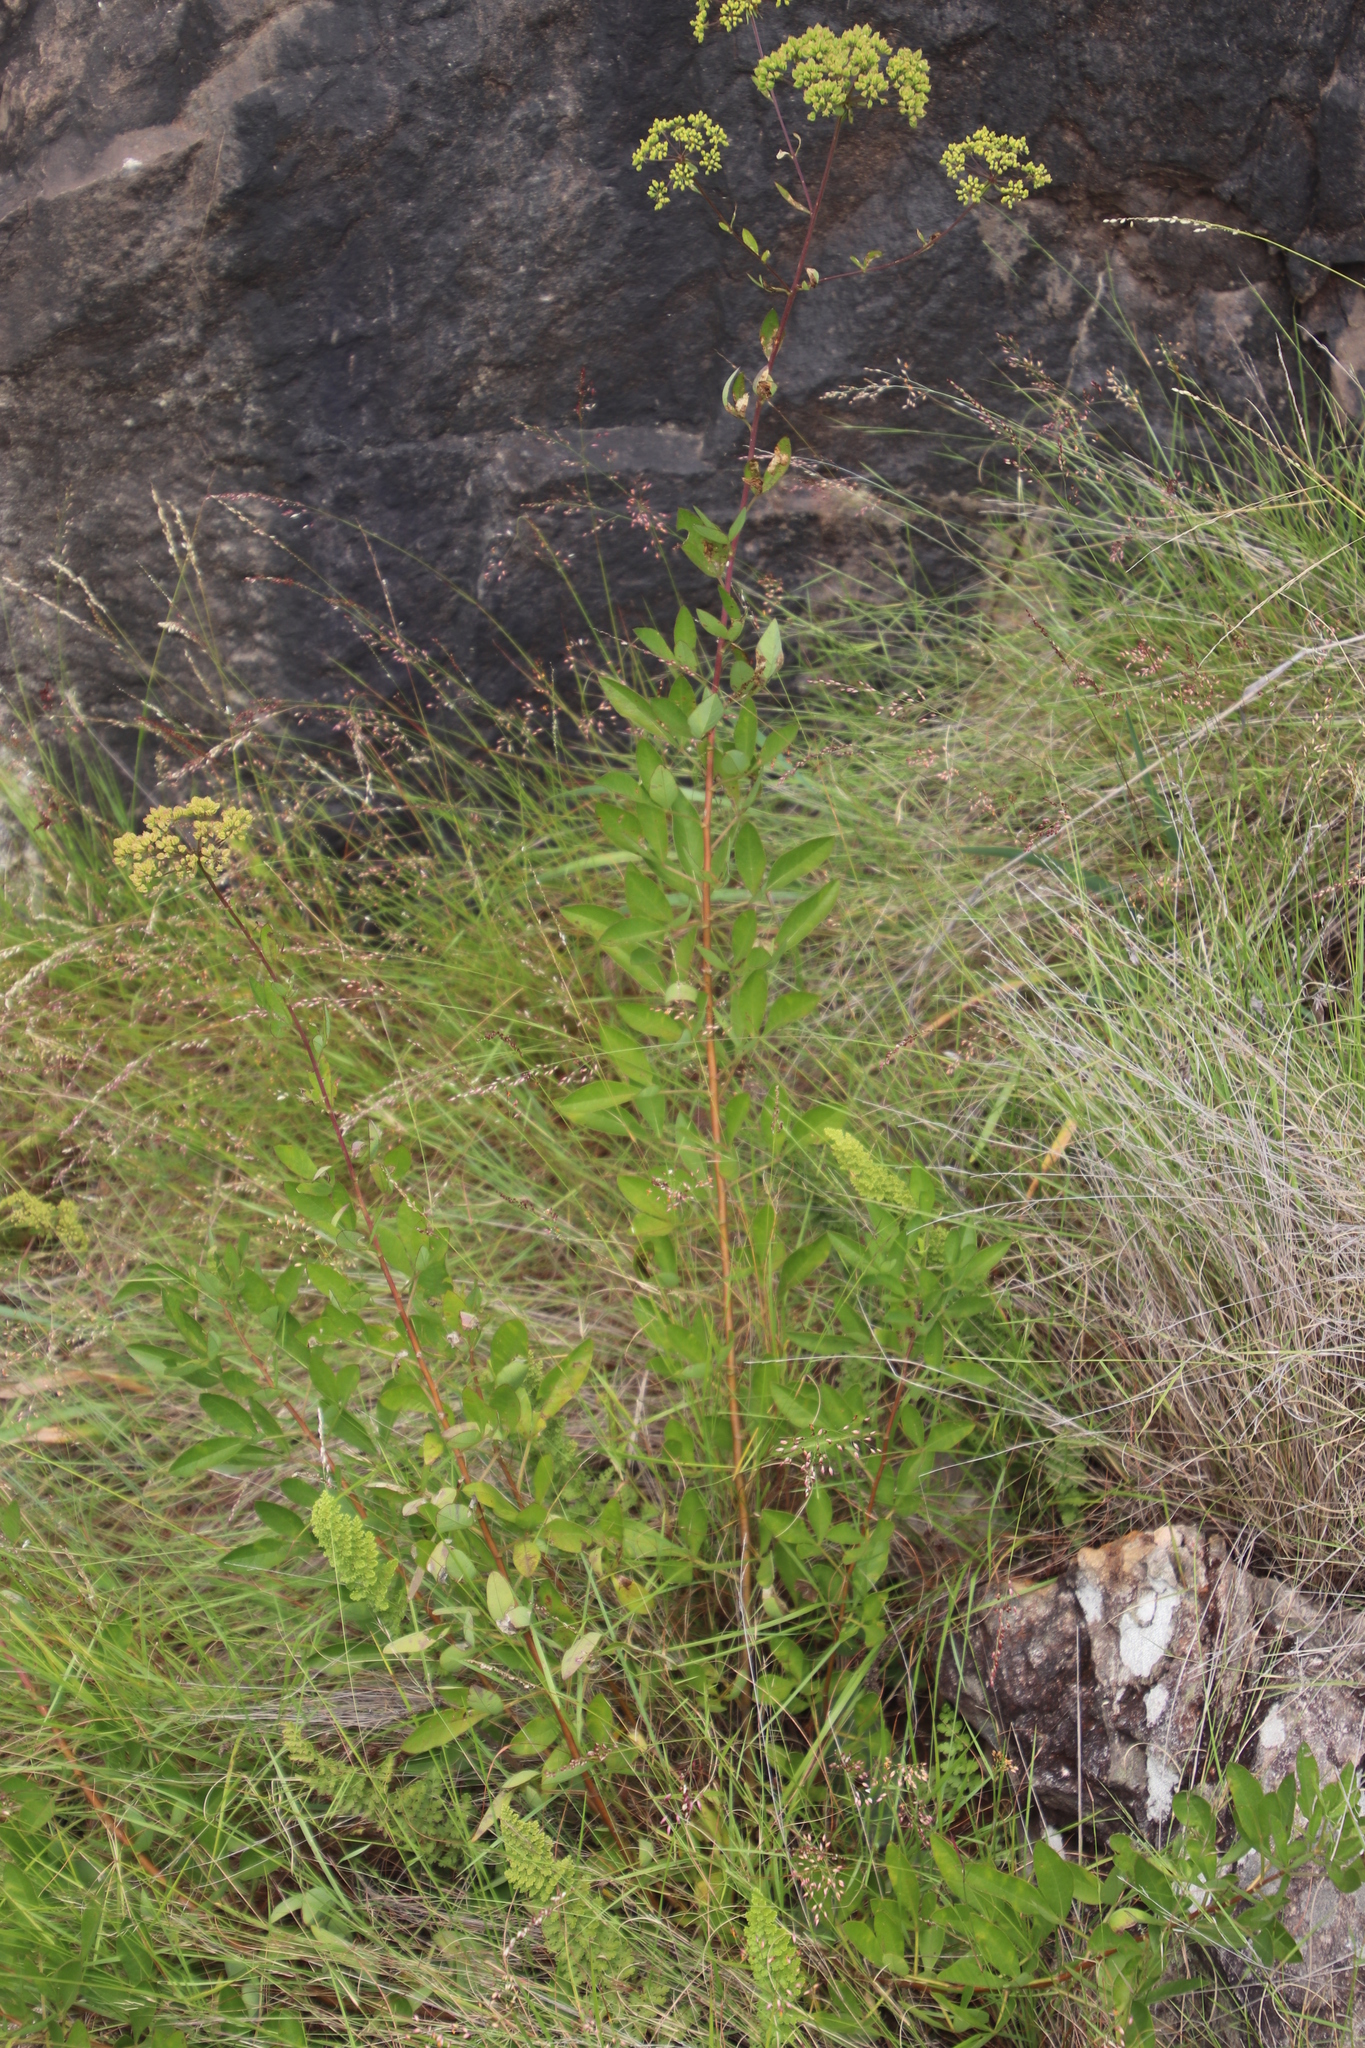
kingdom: Plantae
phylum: Tracheophyta
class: Magnoliopsida
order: Apiales
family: Apiaceae
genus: Heteromorpha
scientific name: Heteromorpha involucrata
